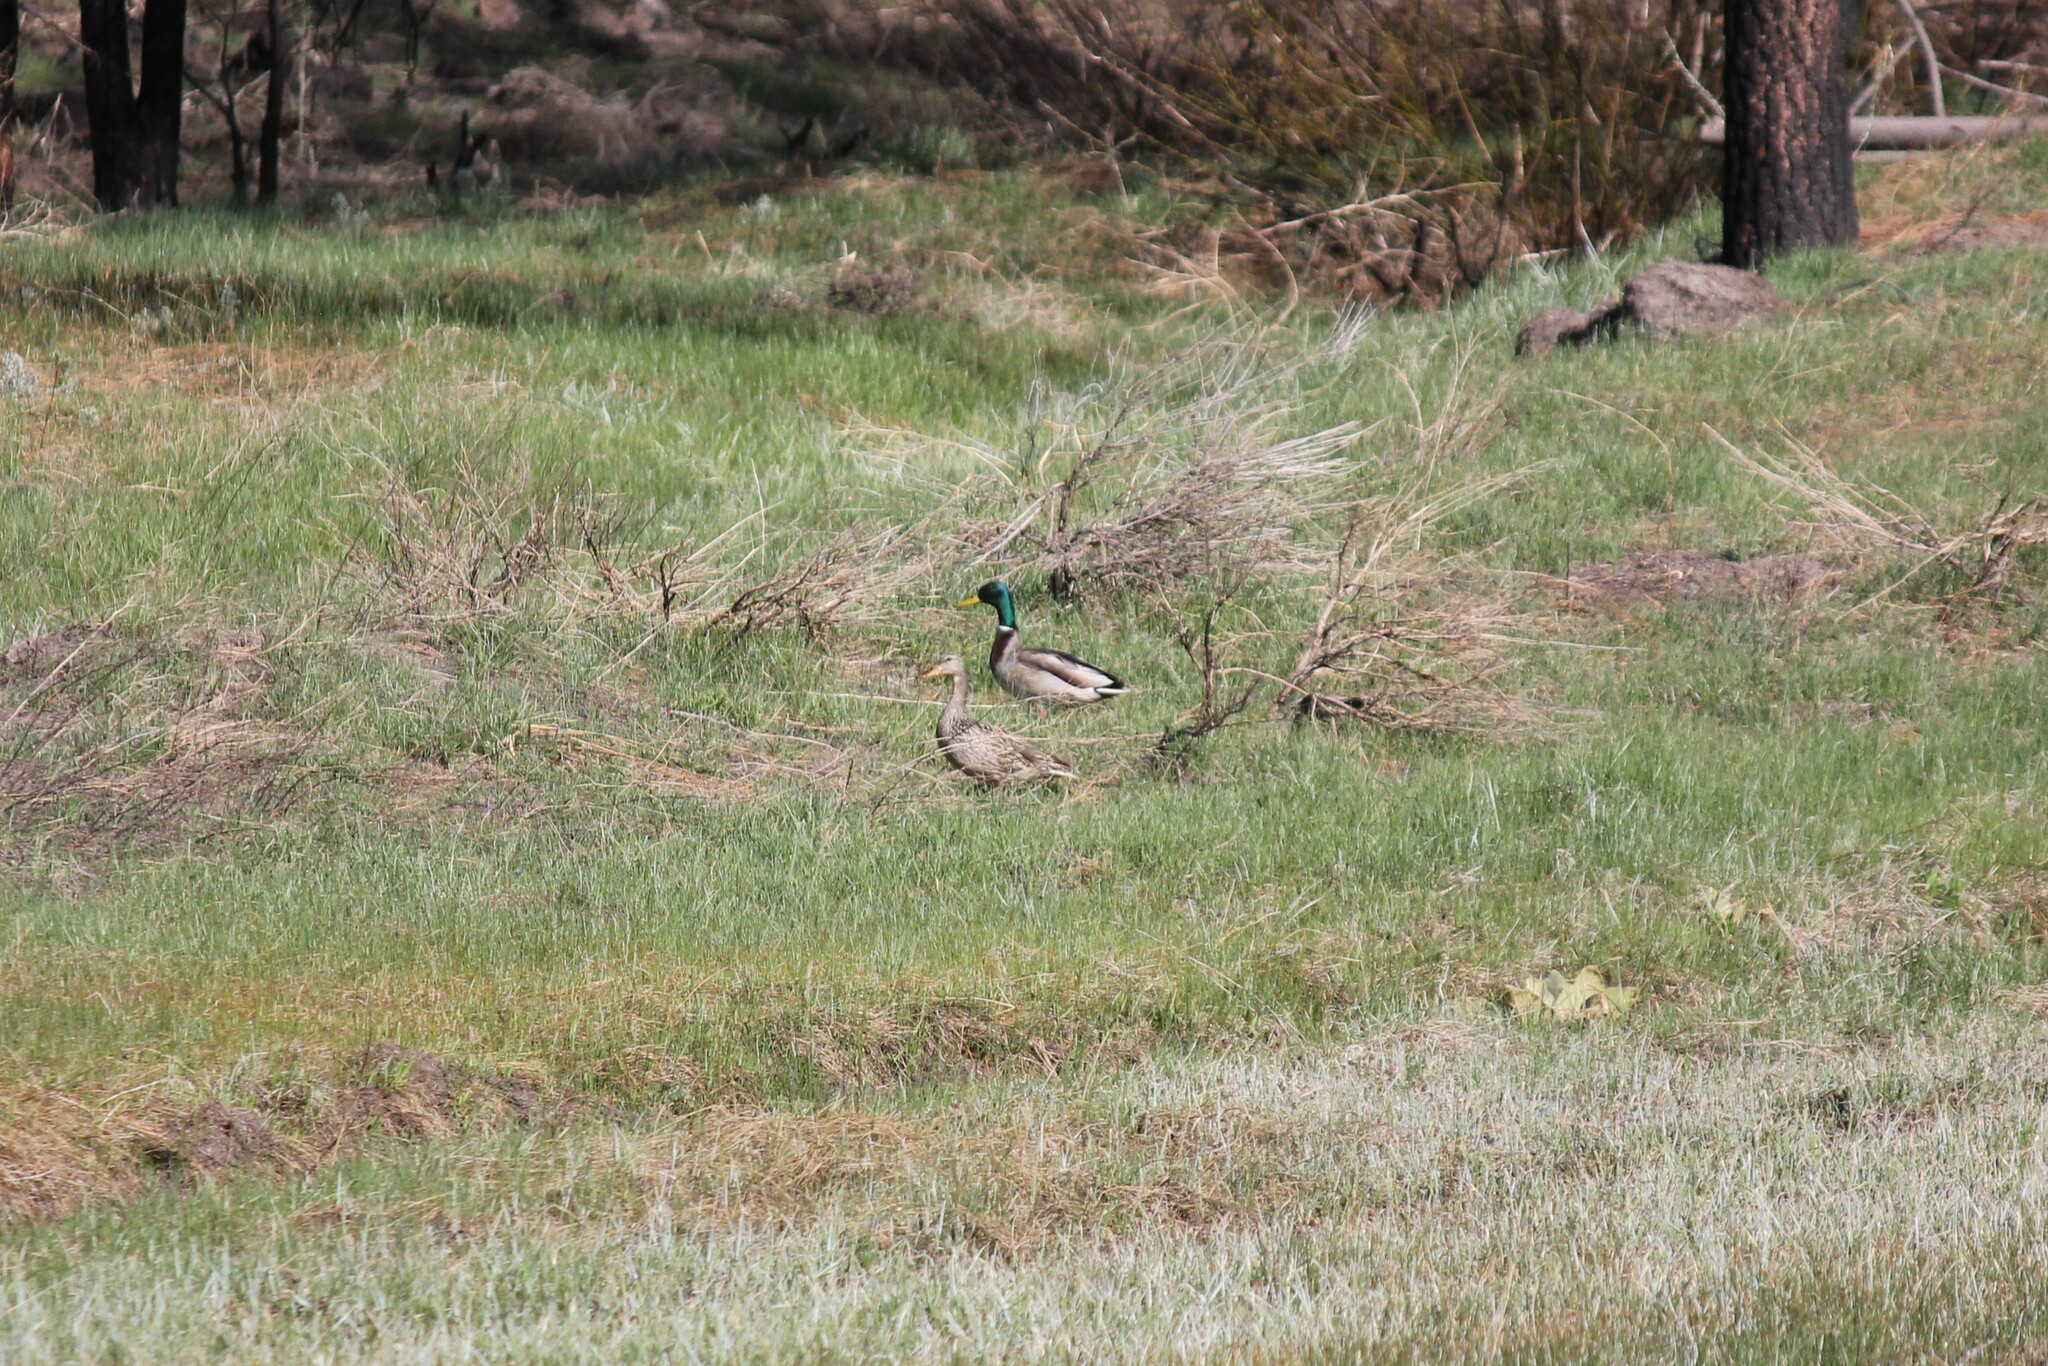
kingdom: Animalia
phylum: Chordata
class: Aves
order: Anseriformes
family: Anatidae
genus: Anas
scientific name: Anas platyrhynchos
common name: Mallard
